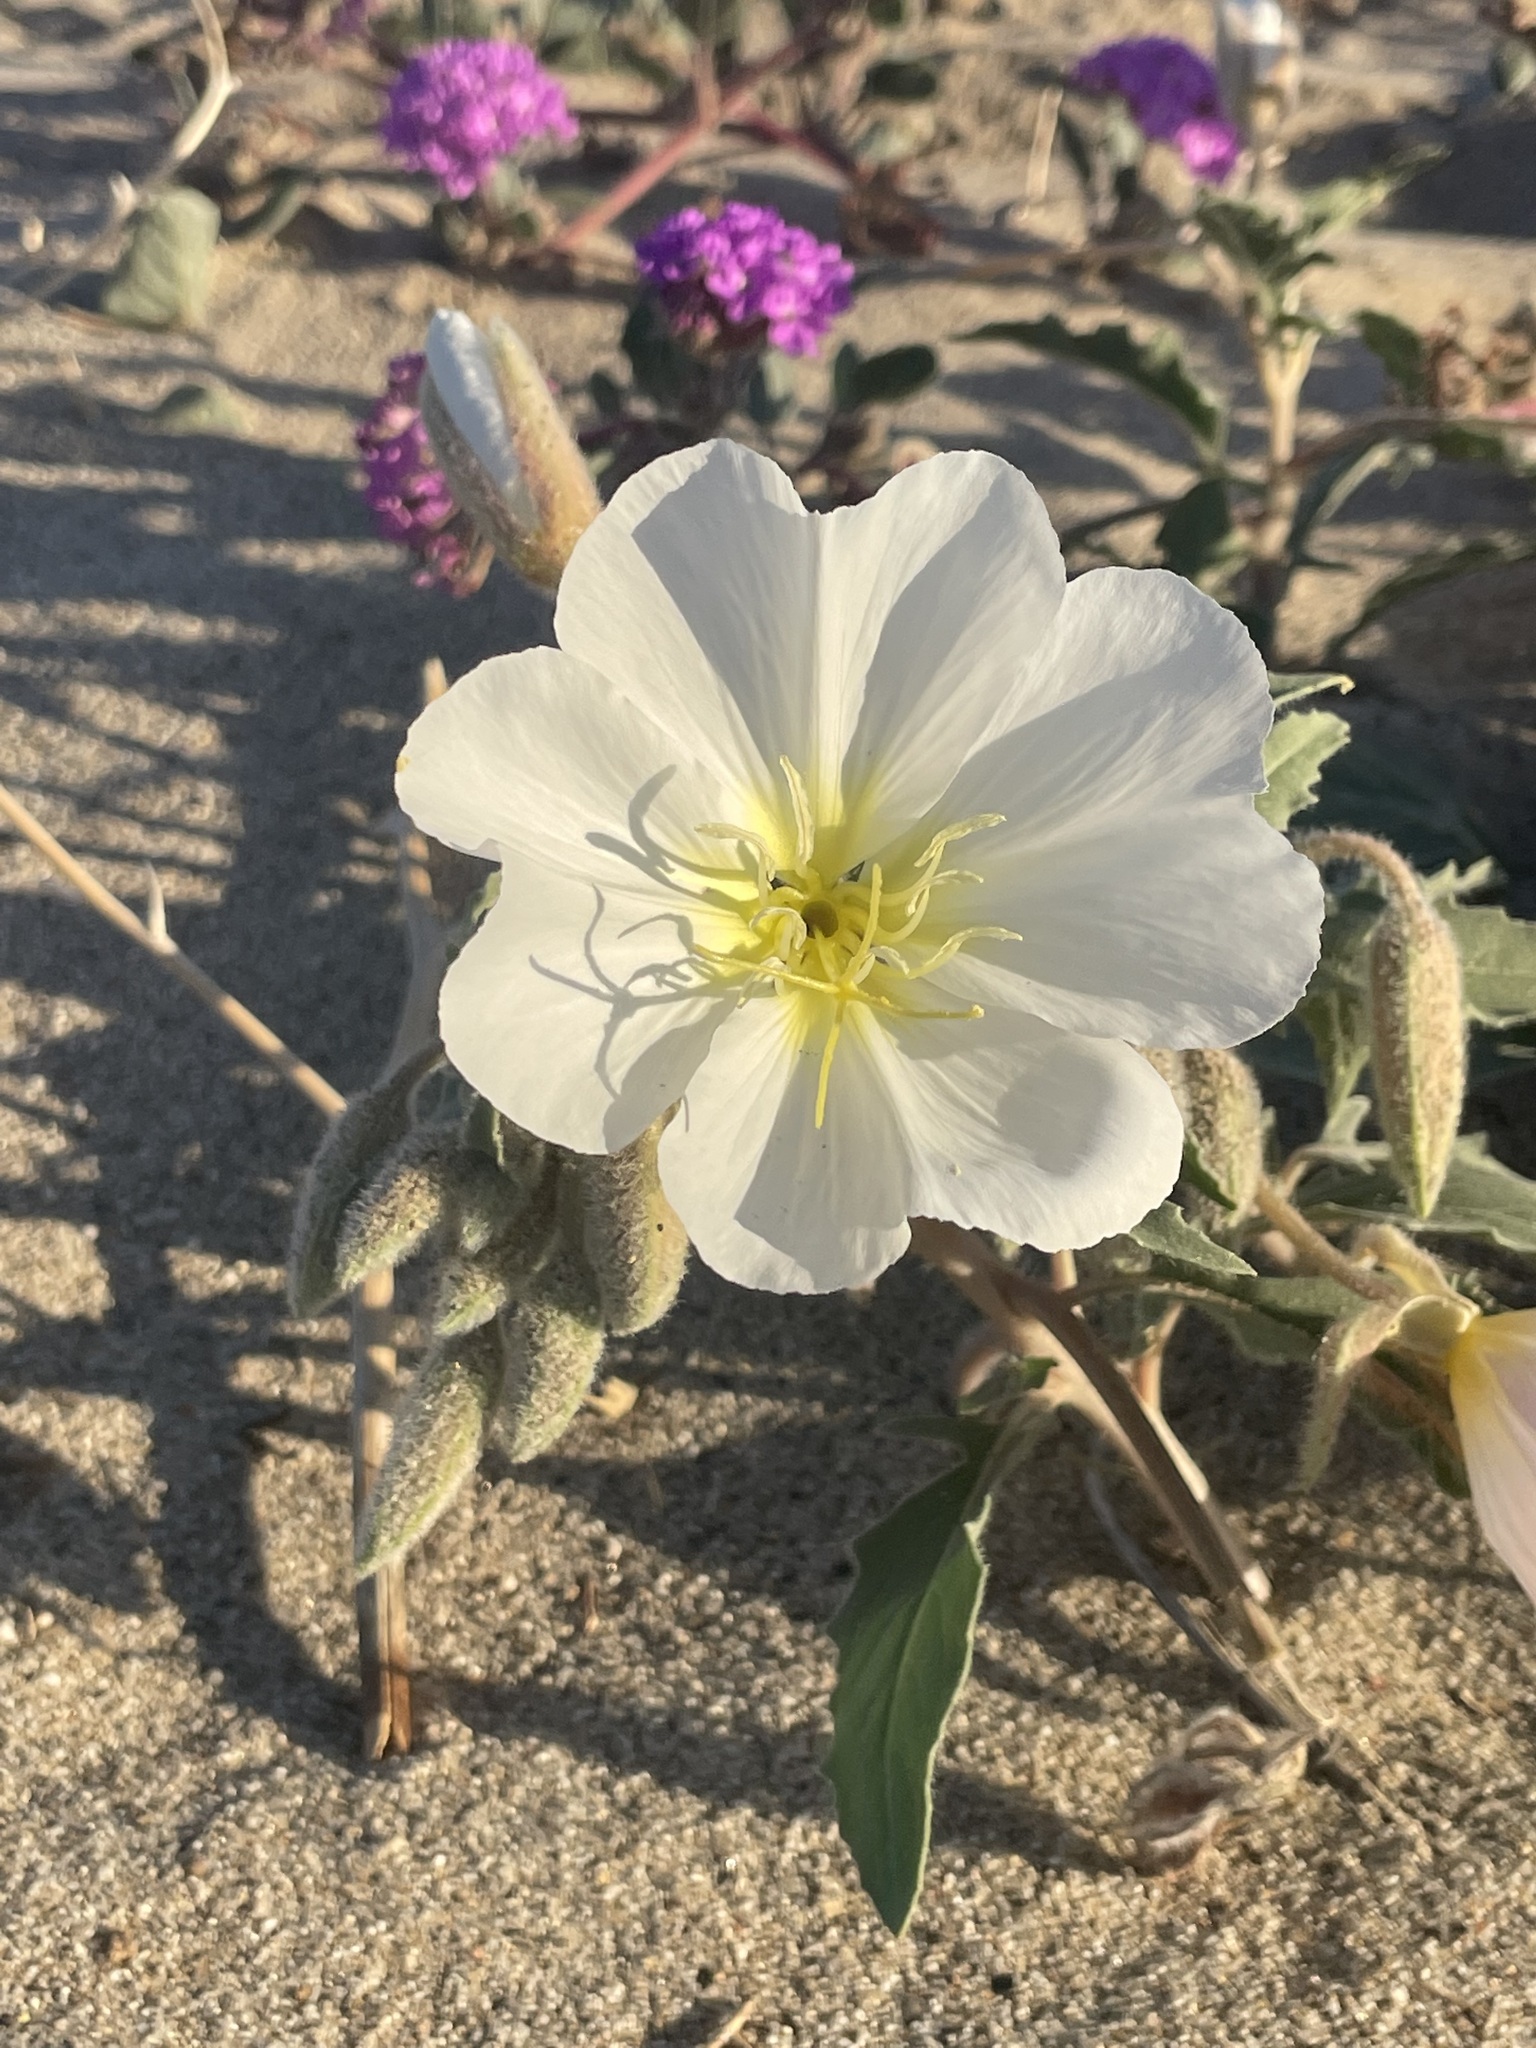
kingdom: Plantae
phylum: Tracheophyta
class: Magnoliopsida
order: Myrtales
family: Onagraceae
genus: Oenothera
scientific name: Oenothera deltoides
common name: Basket evening-primrose
